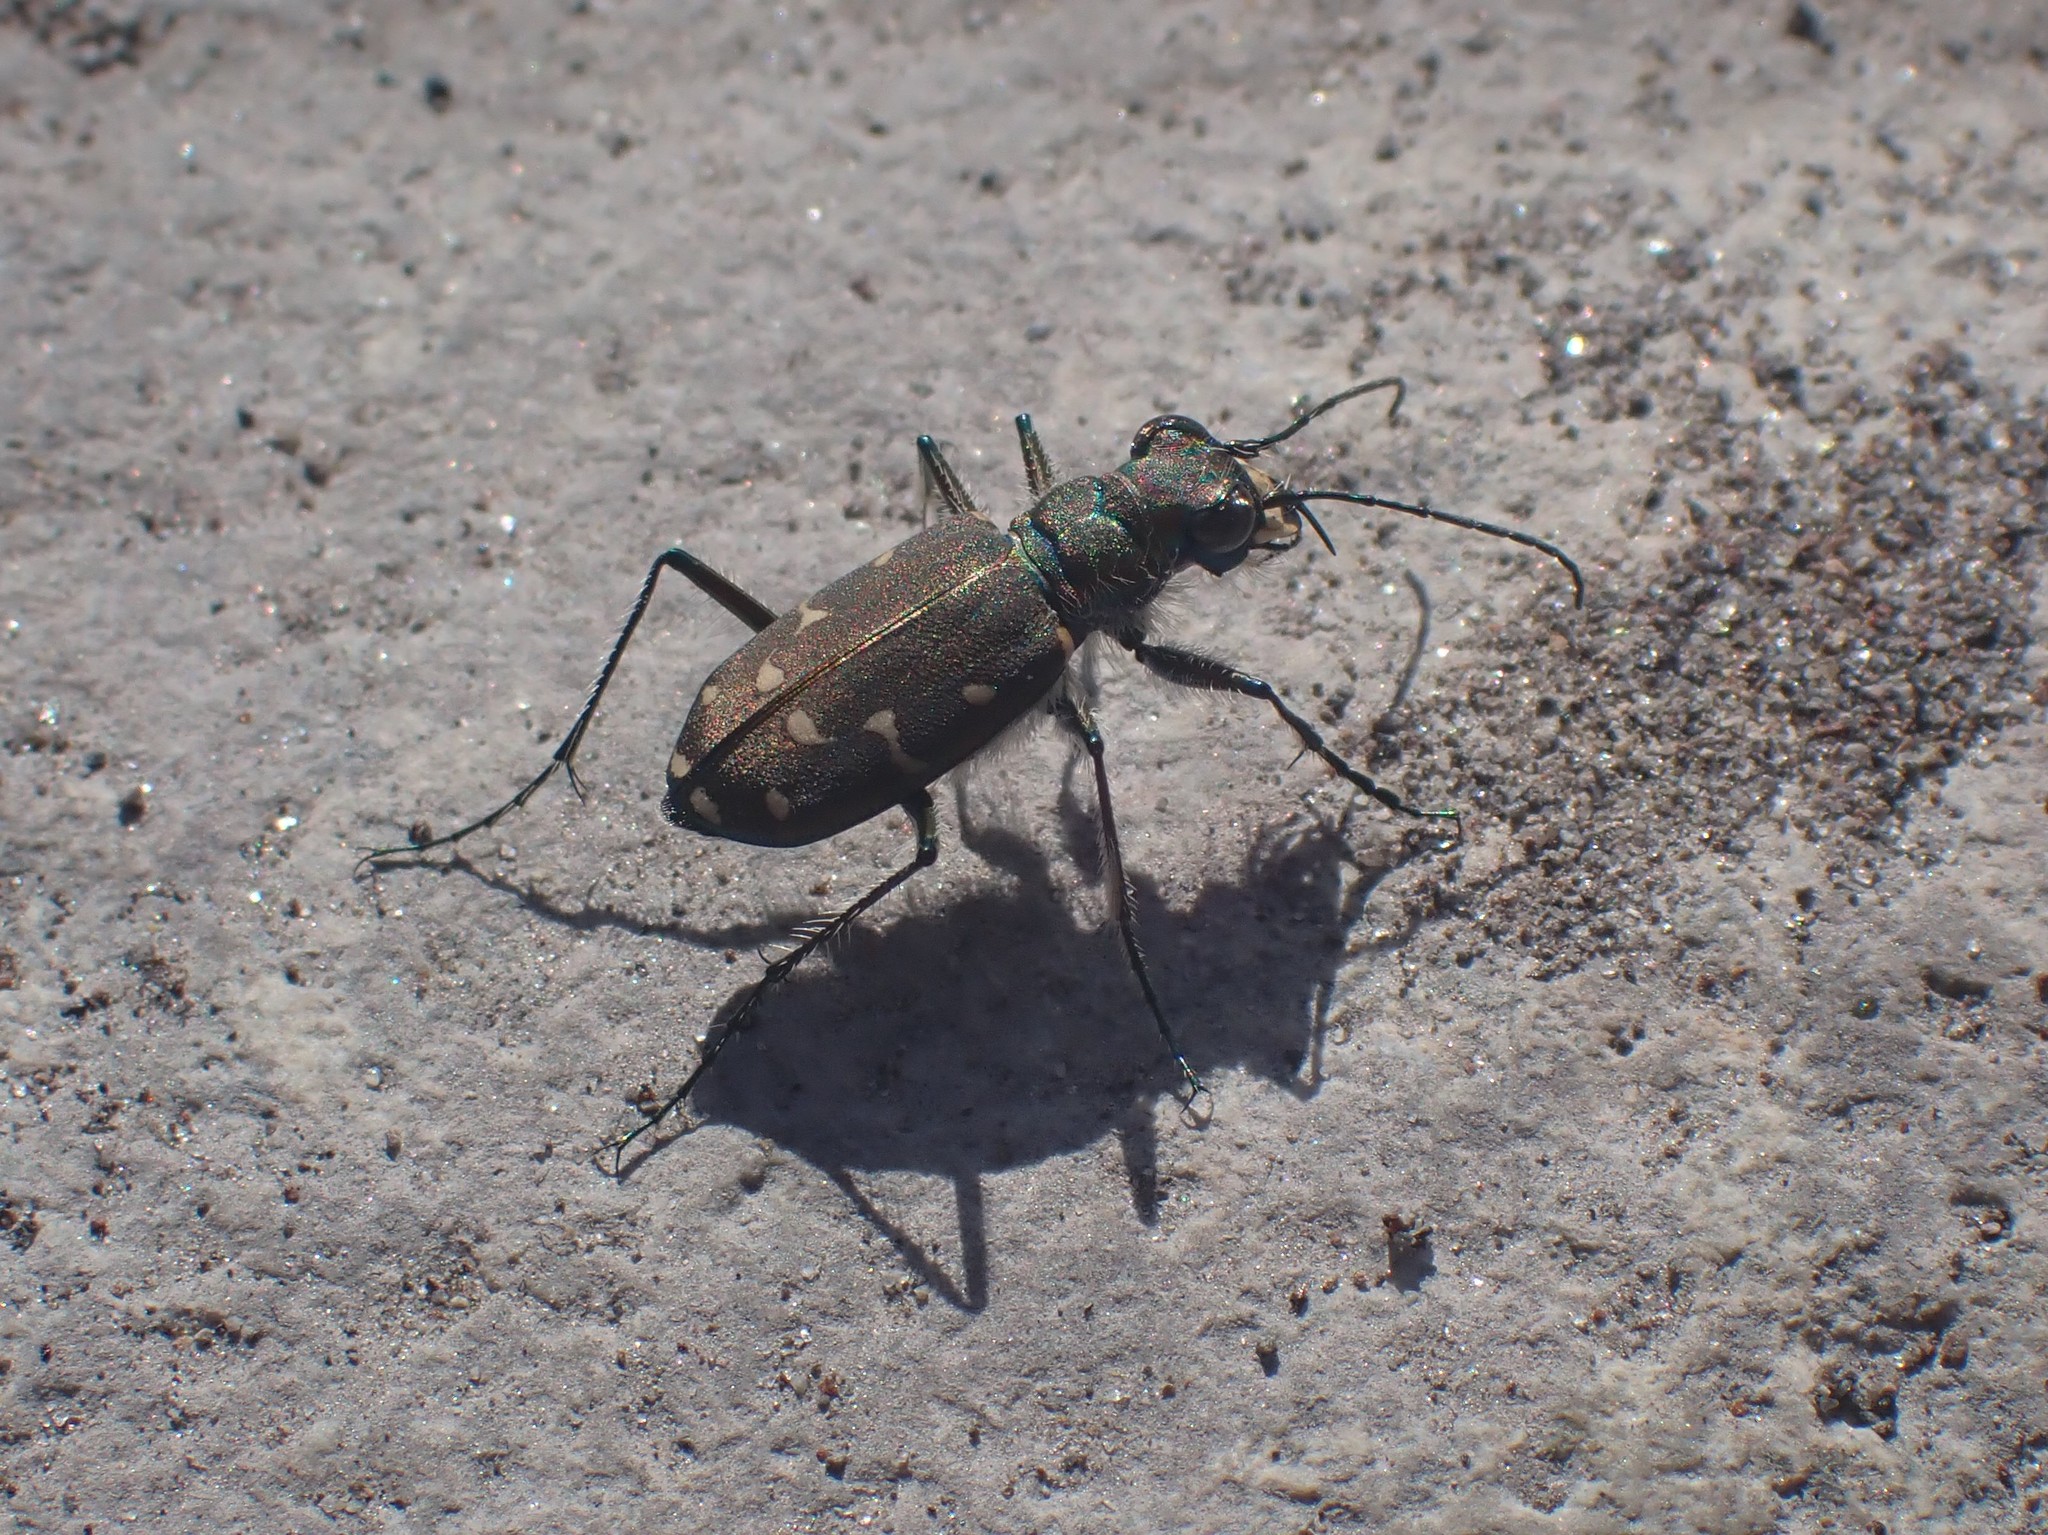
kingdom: Animalia
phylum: Arthropoda
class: Insecta
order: Coleoptera
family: Carabidae
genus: Cicindela
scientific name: Cicindela oregona
